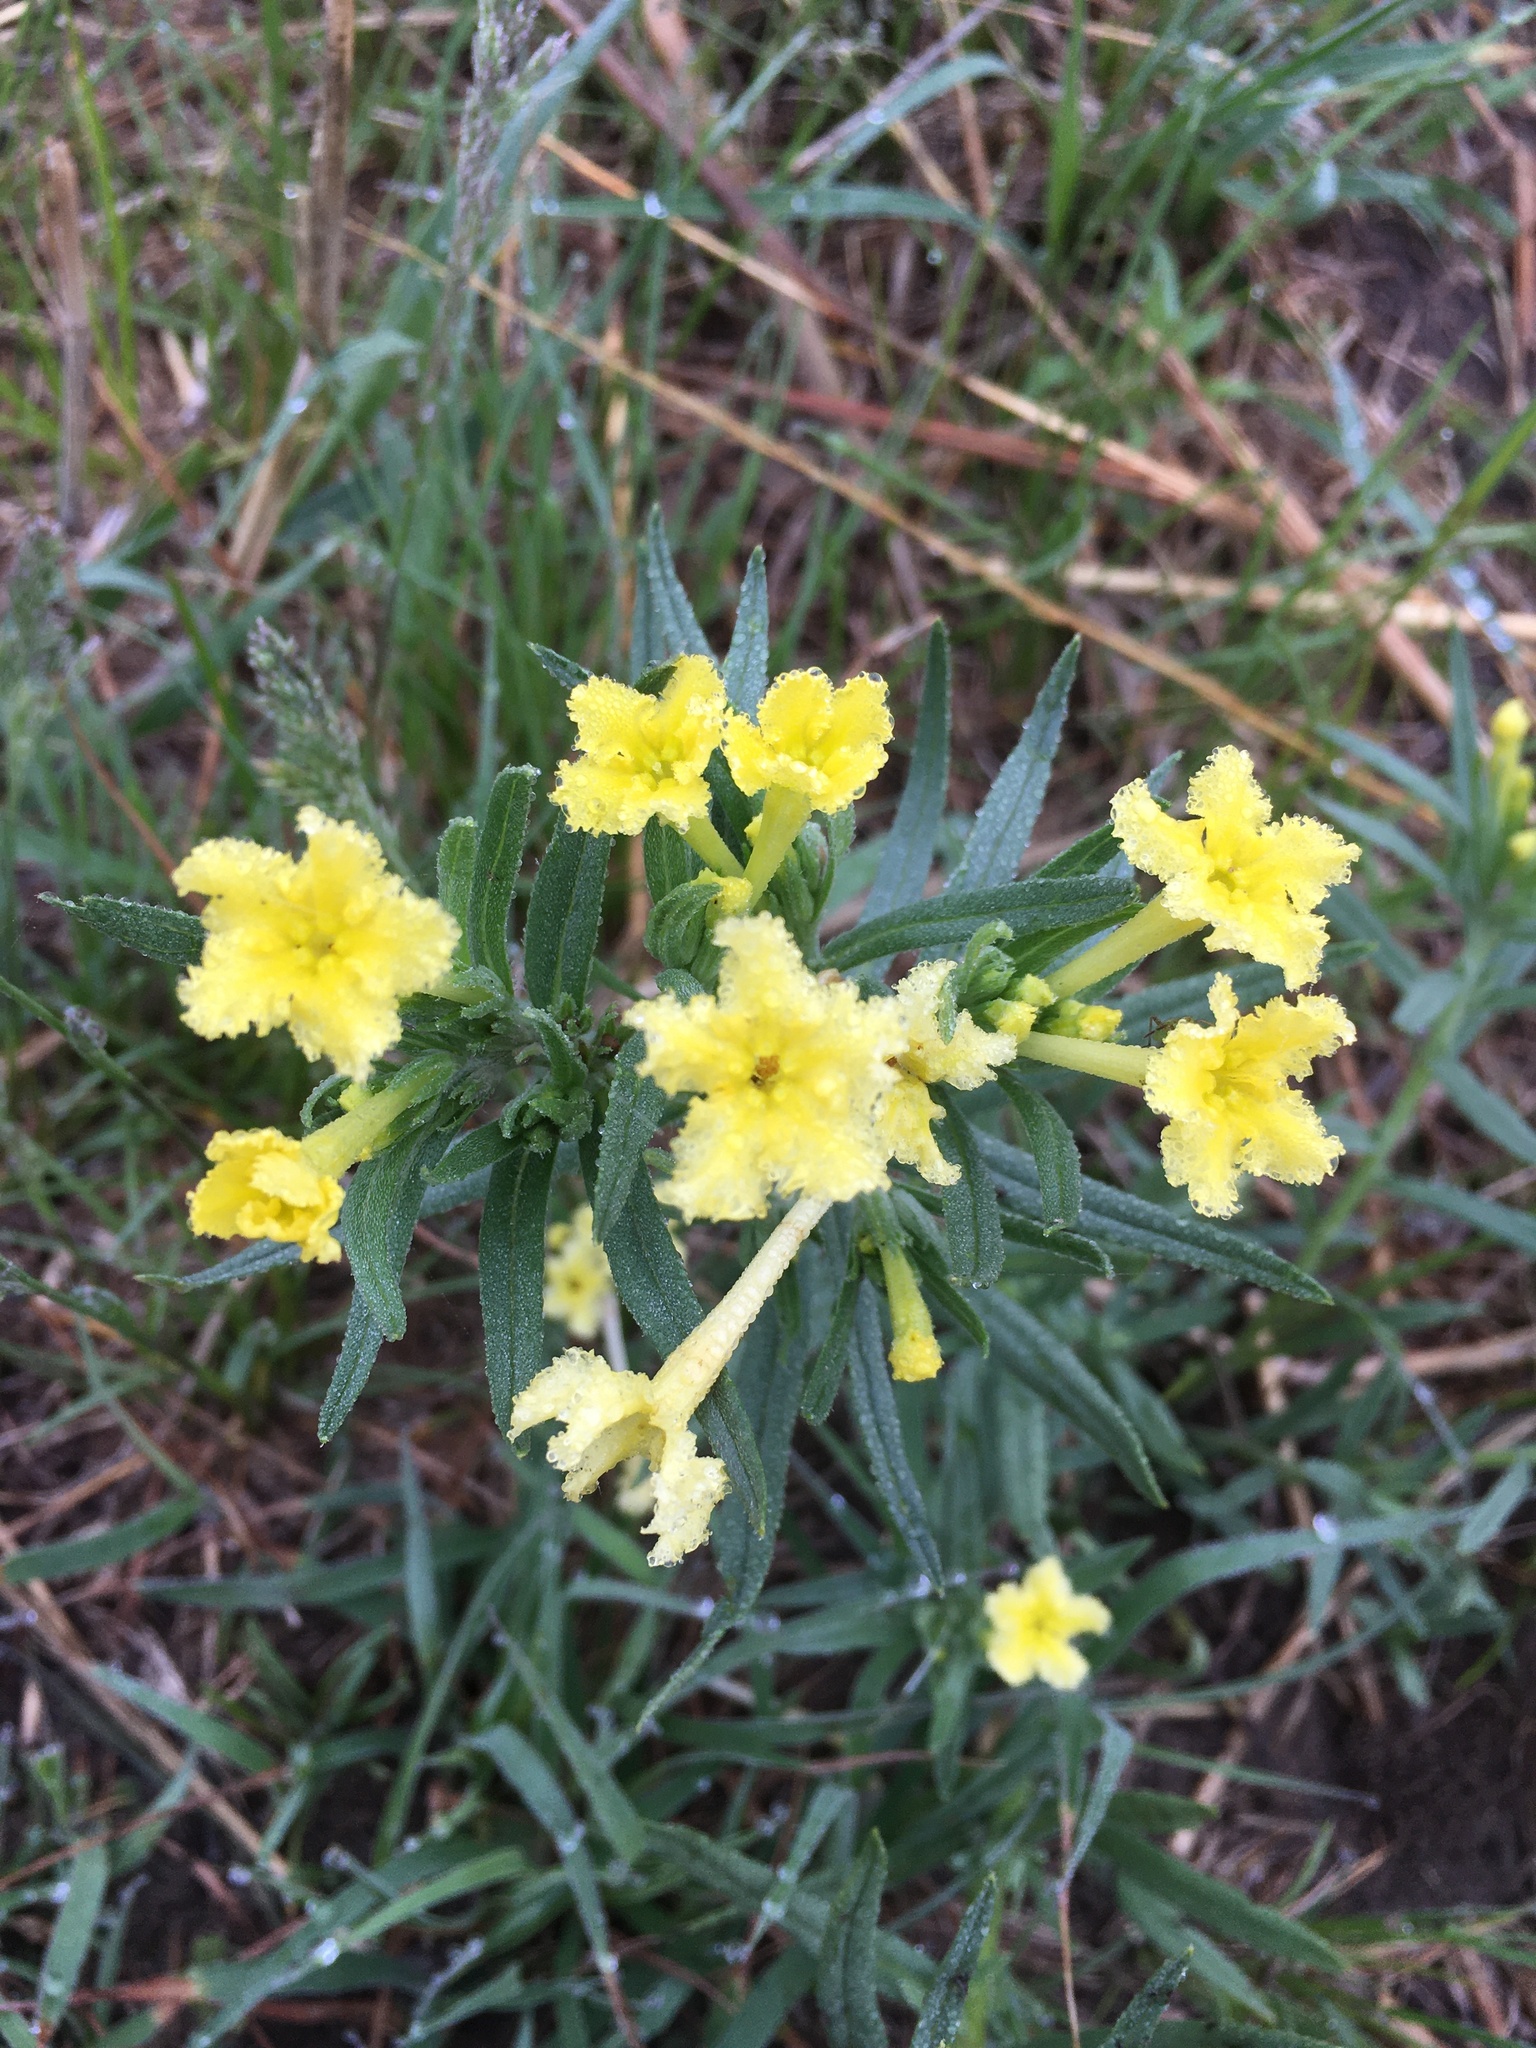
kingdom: Plantae
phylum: Tracheophyta
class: Magnoliopsida
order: Boraginales
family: Boraginaceae
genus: Lithospermum
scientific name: Lithospermum incisum
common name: Fringed gromwell
